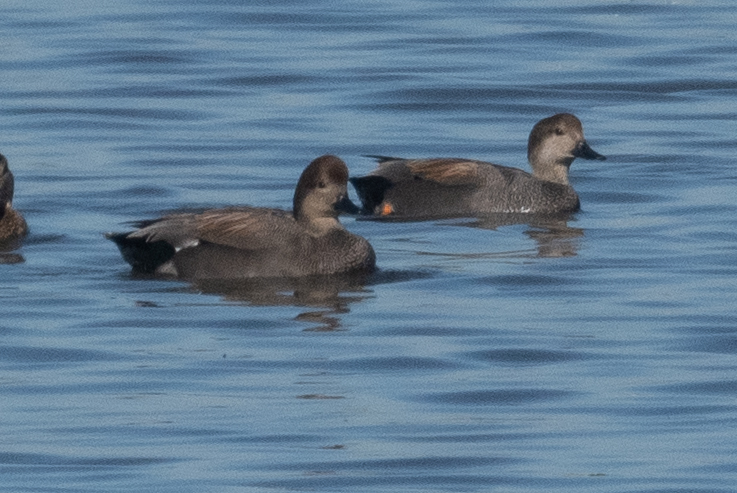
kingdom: Animalia
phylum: Chordata
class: Aves
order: Anseriformes
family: Anatidae
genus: Mareca
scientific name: Mareca strepera
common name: Gadwall
